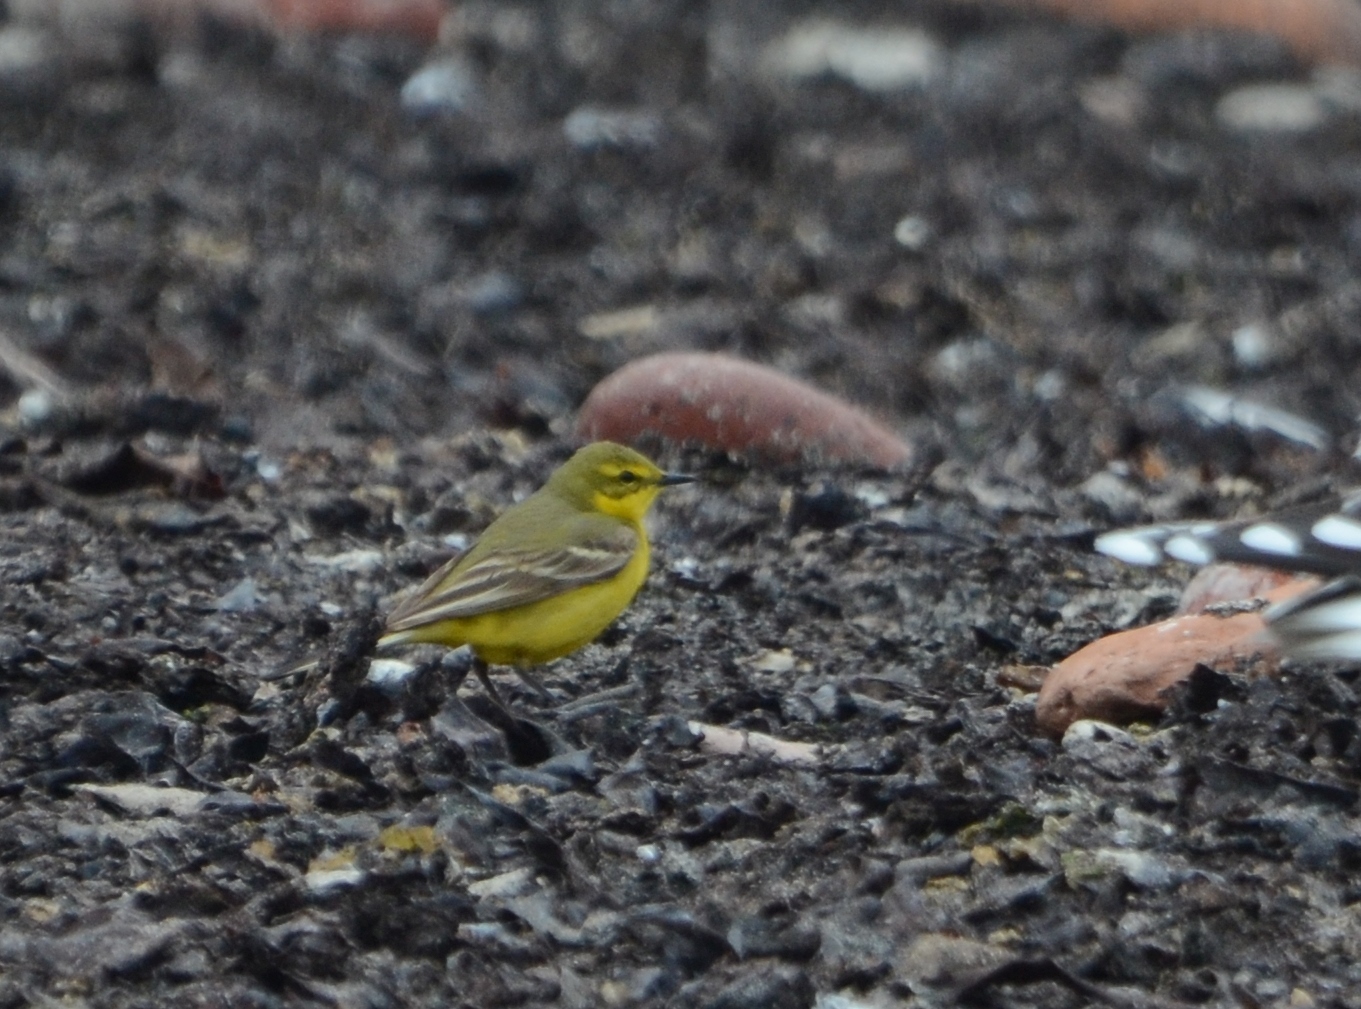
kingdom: Animalia
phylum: Chordata
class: Aves
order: Passeriformes
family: Motacillidae
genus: Motacilla
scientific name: Motacilla flava
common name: Western yellow wagtail
